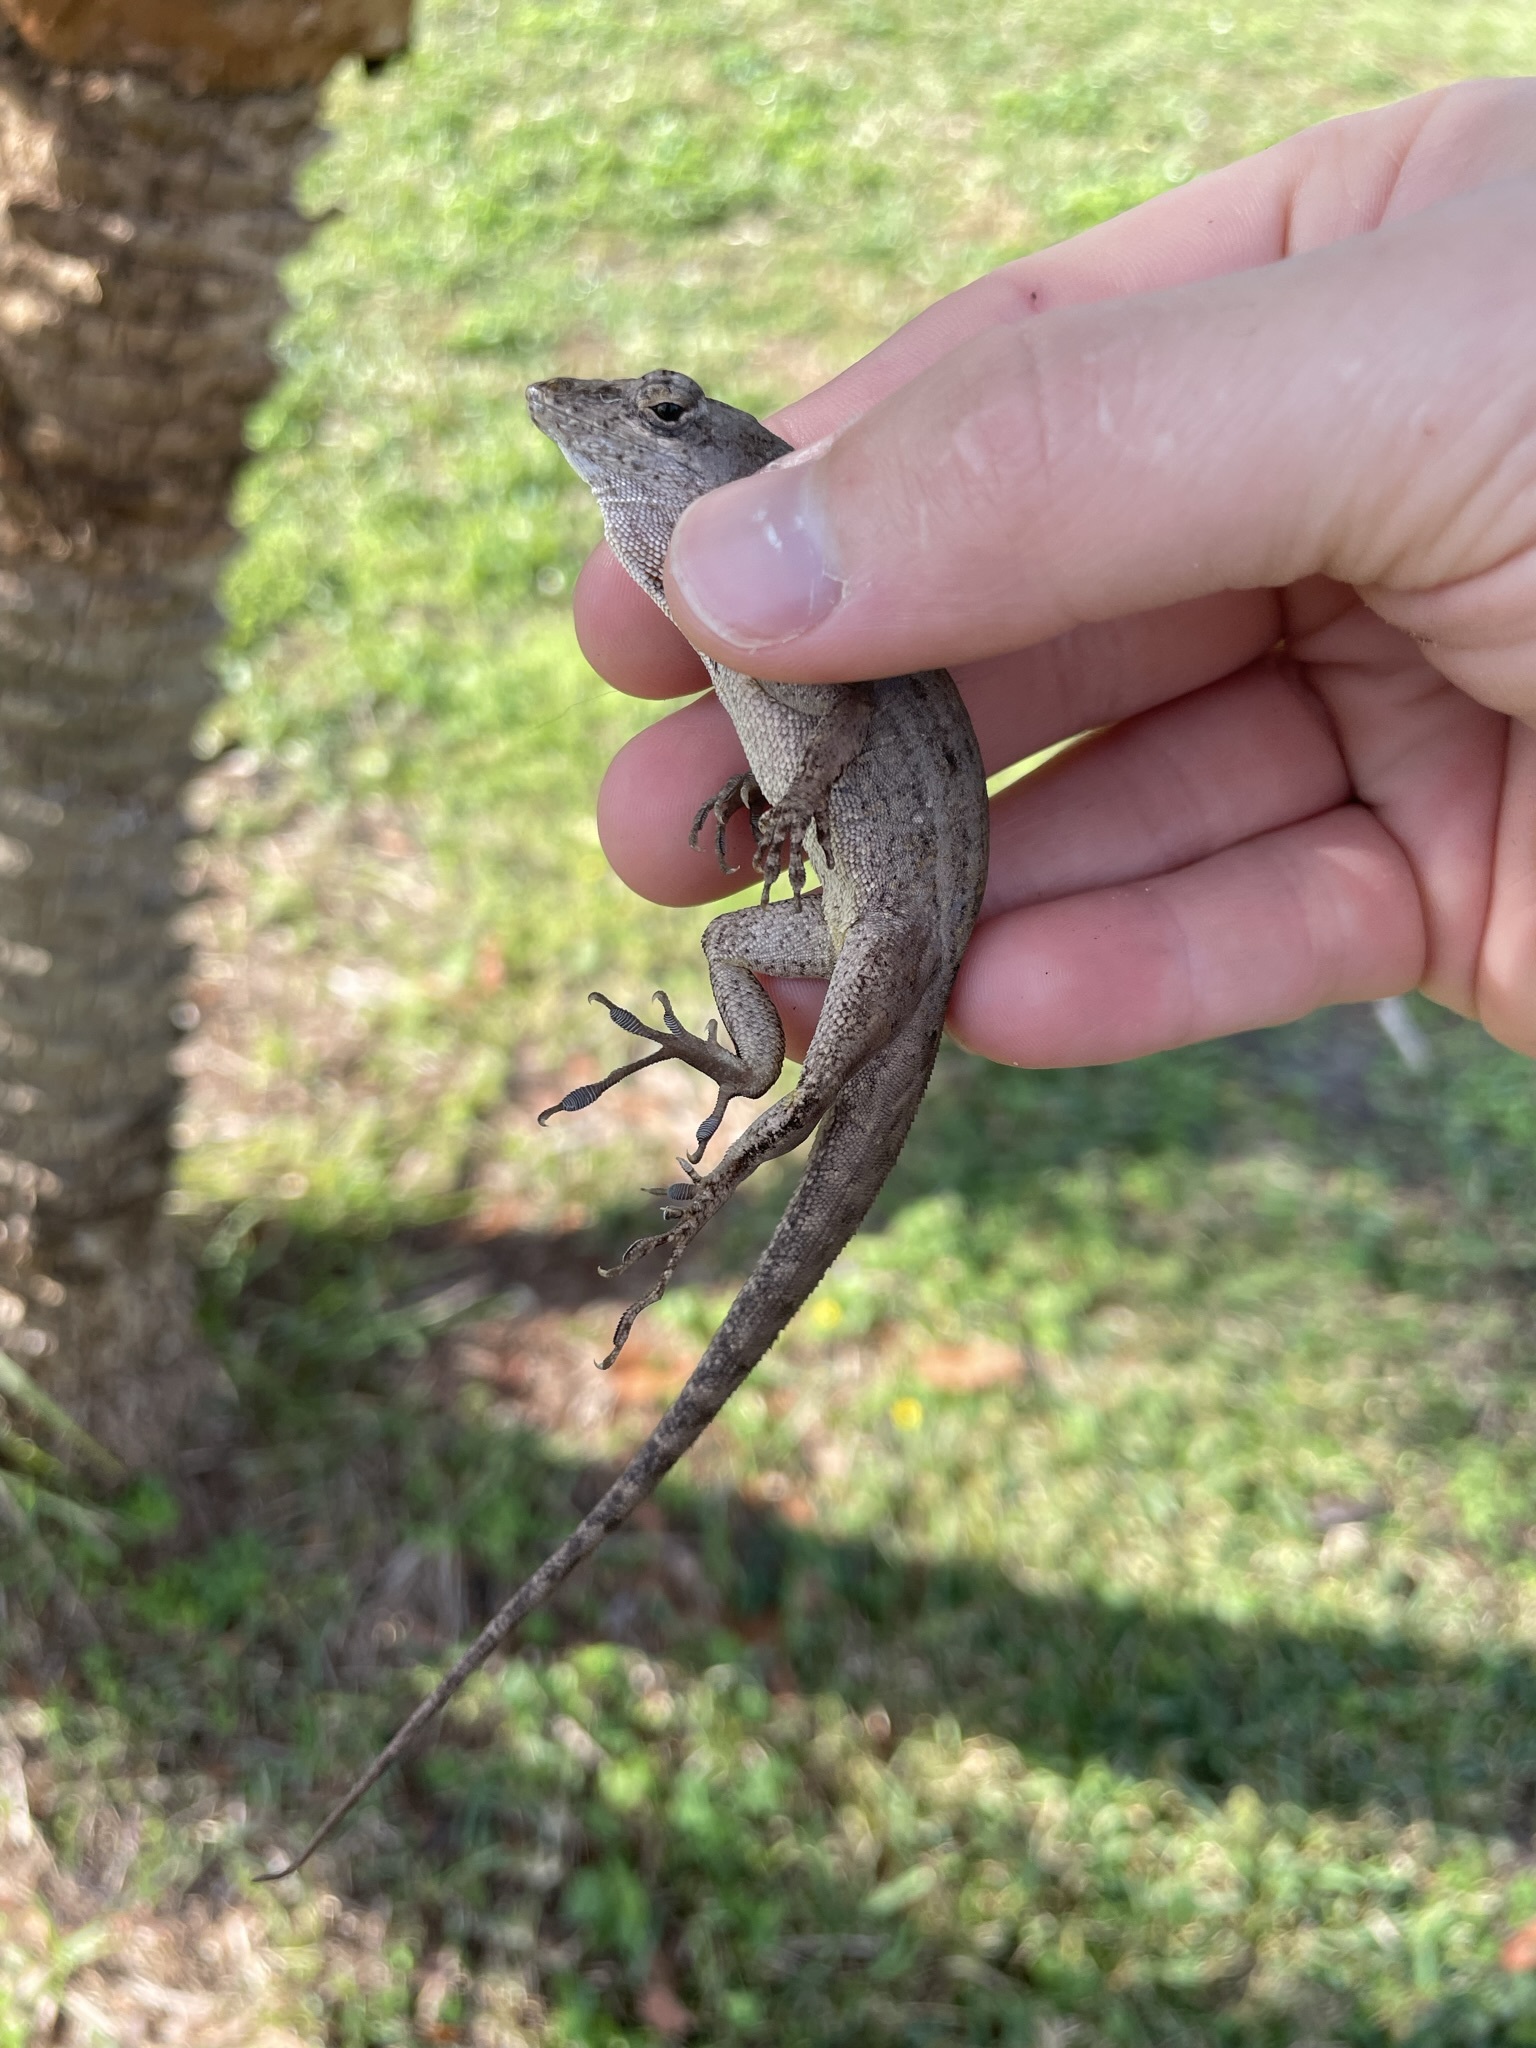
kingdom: Animalia
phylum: Chordata
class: Squamata
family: Dactyloidae
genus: Anolis
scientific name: Anolis sagrei
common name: Brown anole
